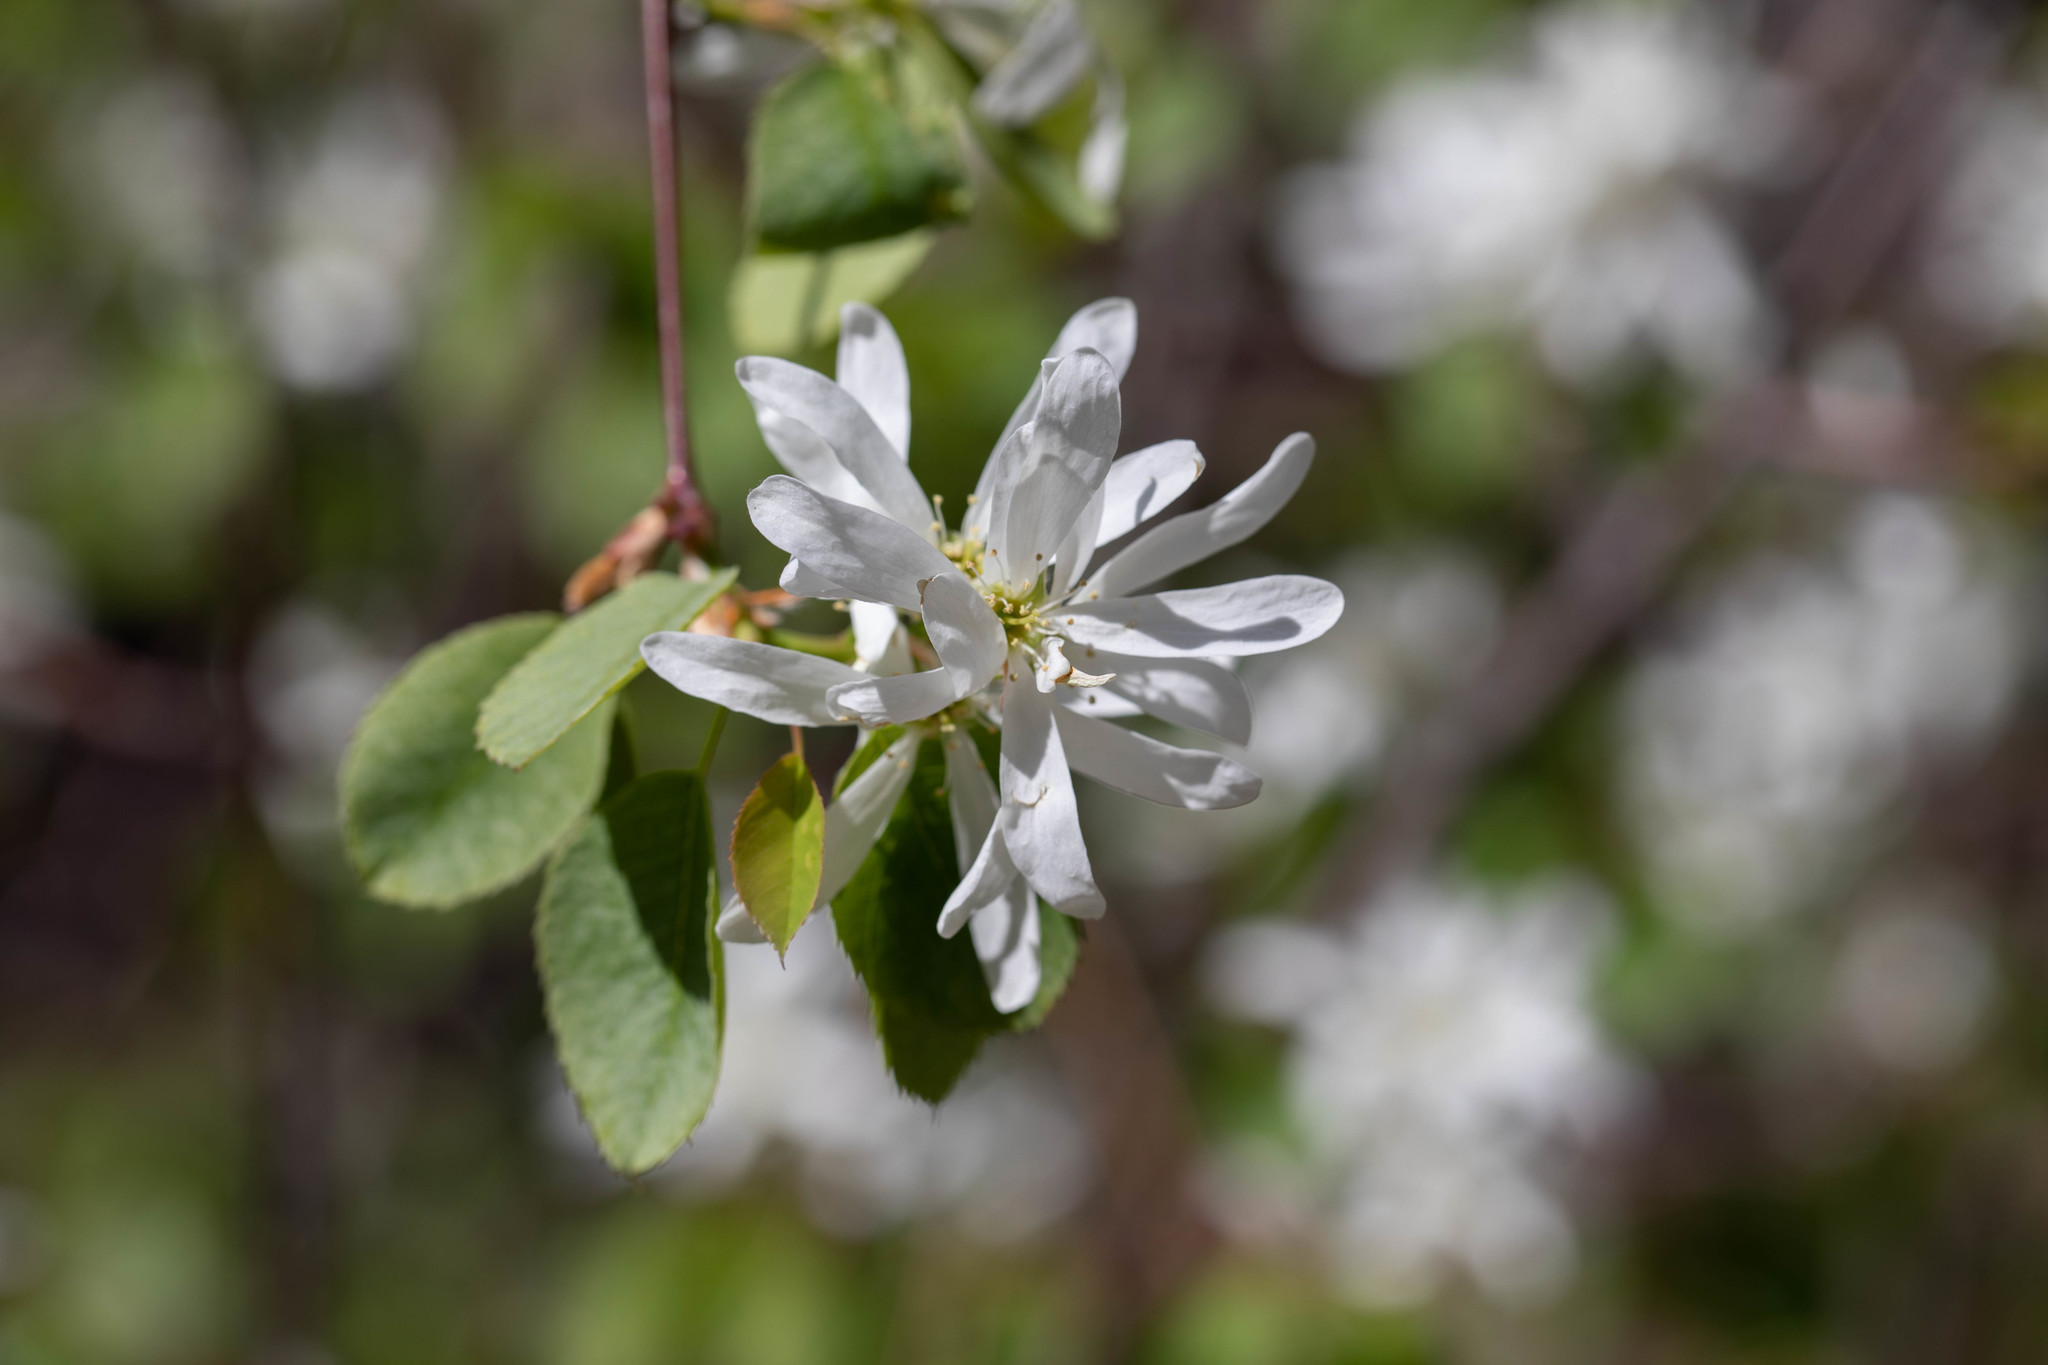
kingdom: Plantae
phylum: Tracheophyta
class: Magnoliopsida
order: Rosales
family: Rosaceae
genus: Amelanchier
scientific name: Amelanchier alnifolia
